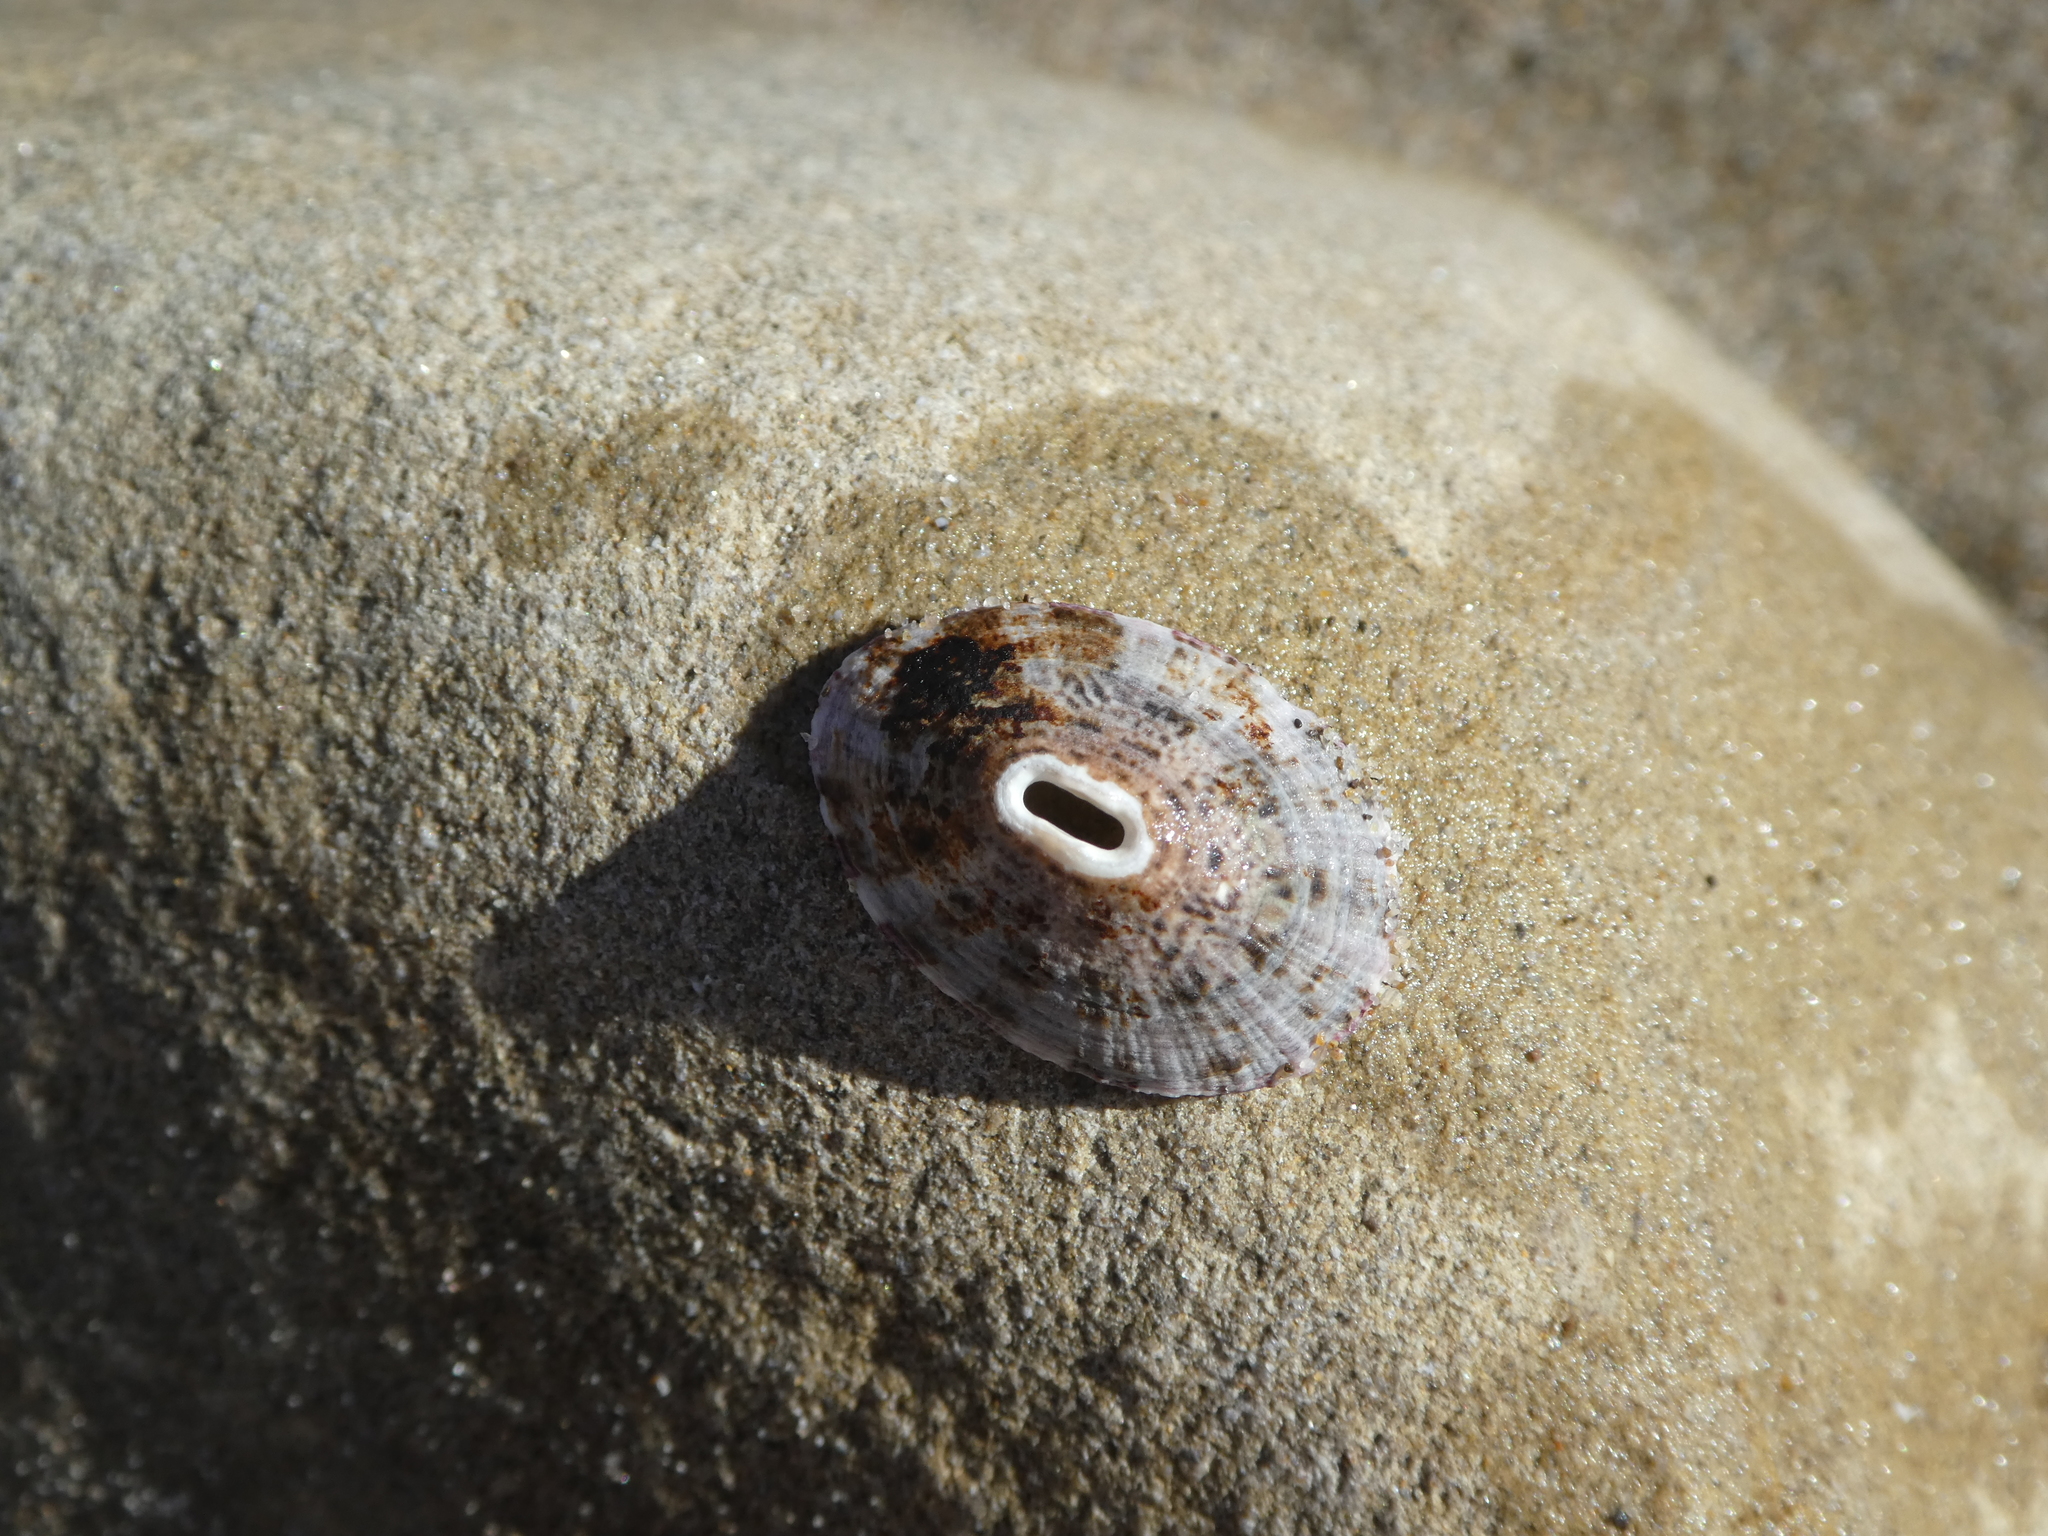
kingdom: Animalia
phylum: Mollusca
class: Gastropoda
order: Lepetellida
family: Fissurellidae
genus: Fissurella
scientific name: Fissurella volcano
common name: Volcano keyhole limpet
